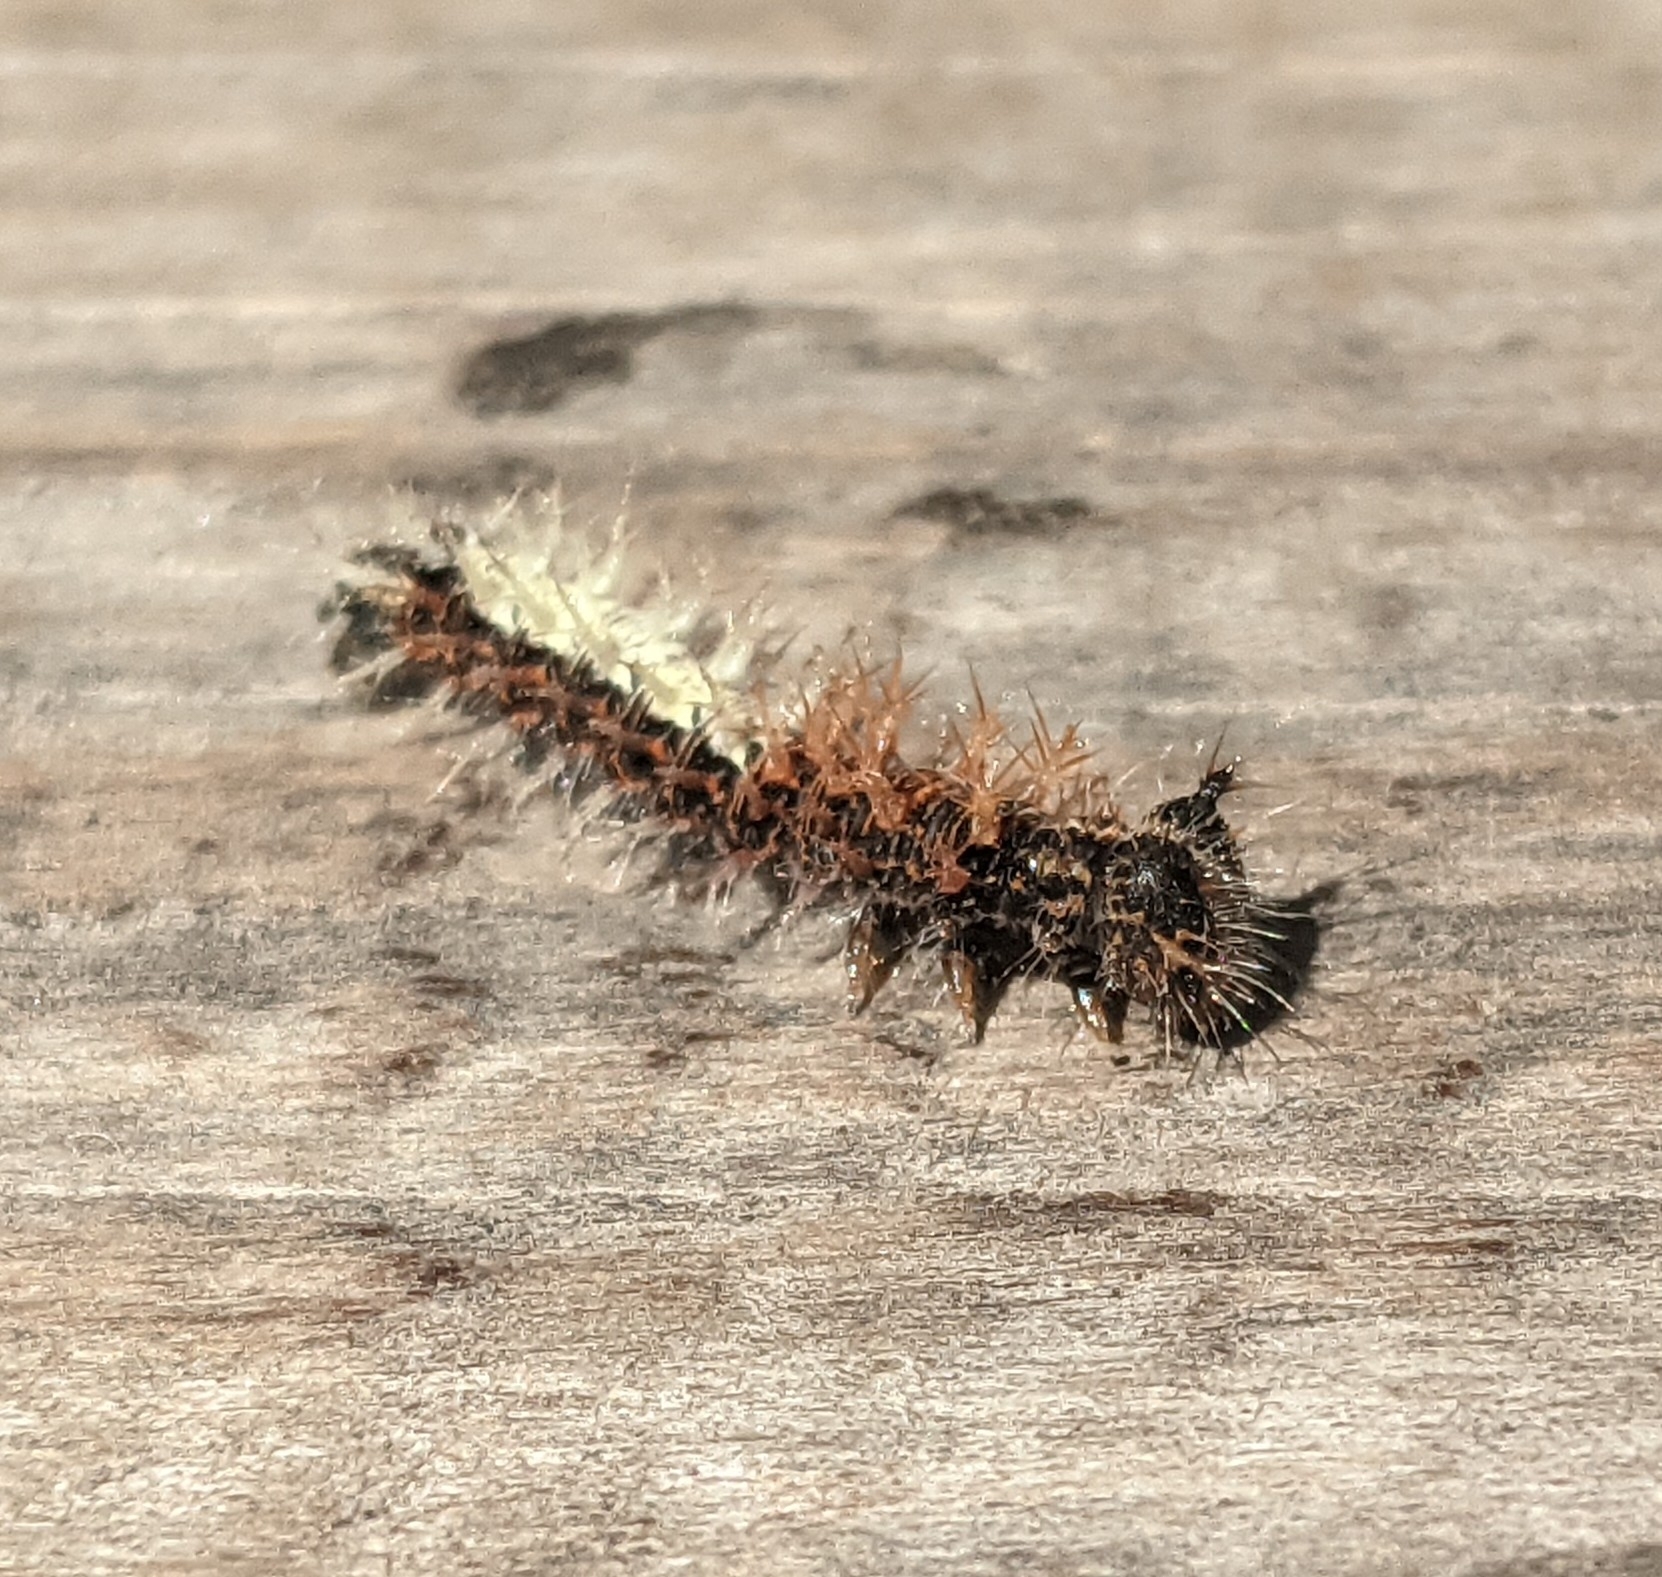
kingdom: Animalia
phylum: Arthropoda
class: Insecta
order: Lepidoptera
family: Nymphalidae
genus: Polygonia
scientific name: Polygonia c-album
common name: Comma
